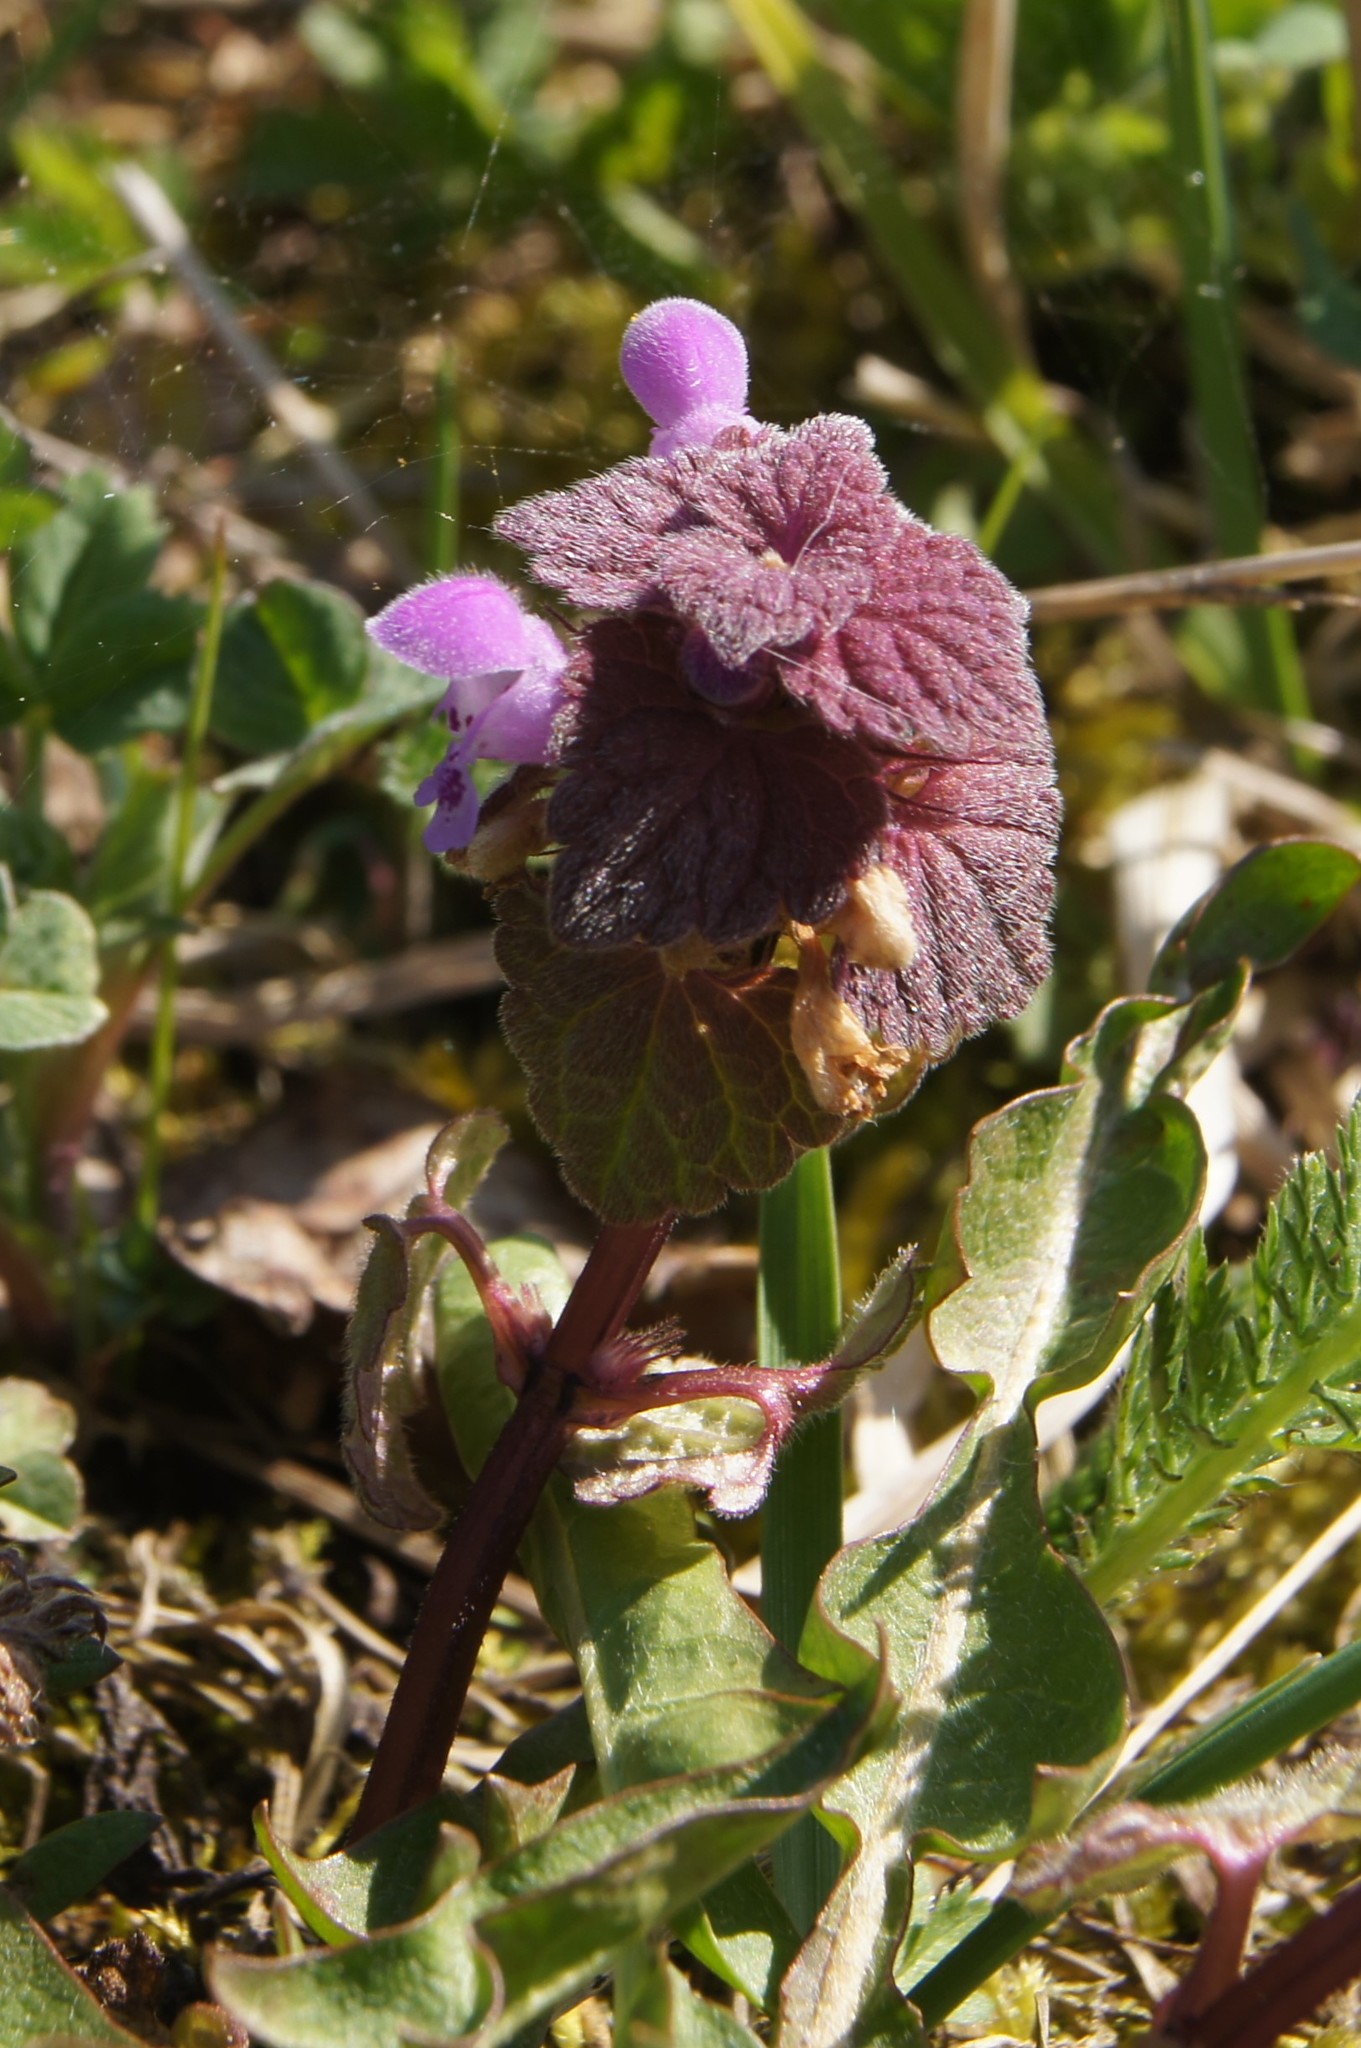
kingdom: Plantae
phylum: Tracheophyta
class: Magnoliopsida
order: Lamiales
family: Lamiaceae
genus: Lamium
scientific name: Lamium purpureum
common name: Red dead-nettle
